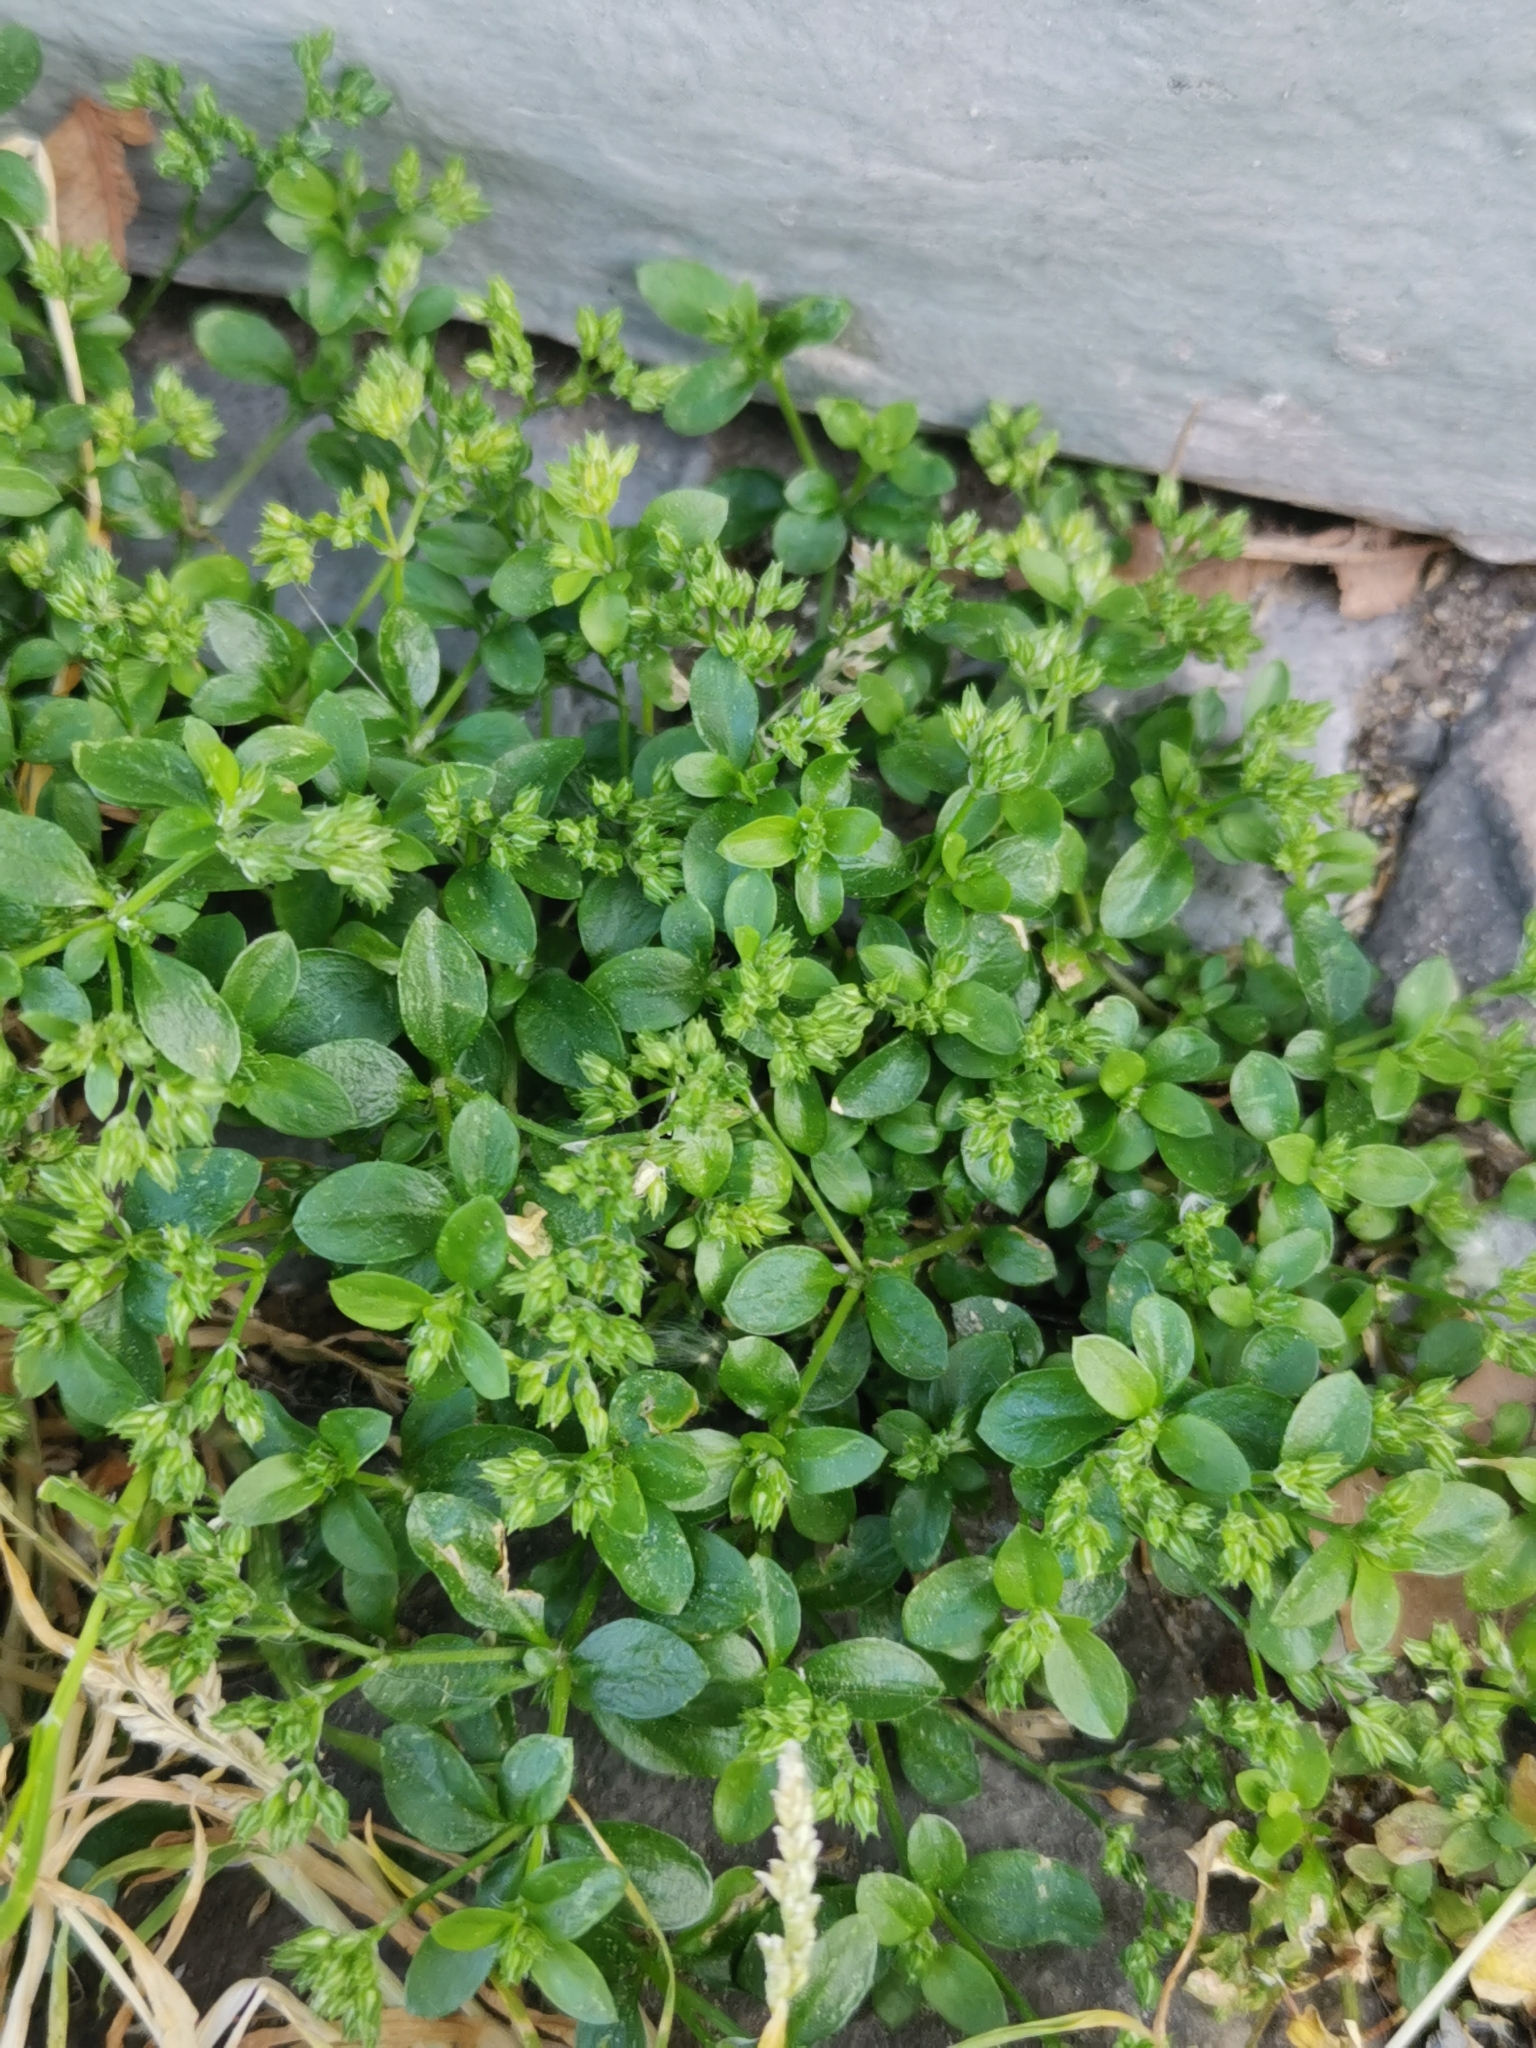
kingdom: Plantae
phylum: Tracheophyta
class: Magnoliopsida
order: Caryophyllales
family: Caryophyllaceae
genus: Polycarpon
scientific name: Polycarpon tetraphyllum
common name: Four-leaved all-seed
